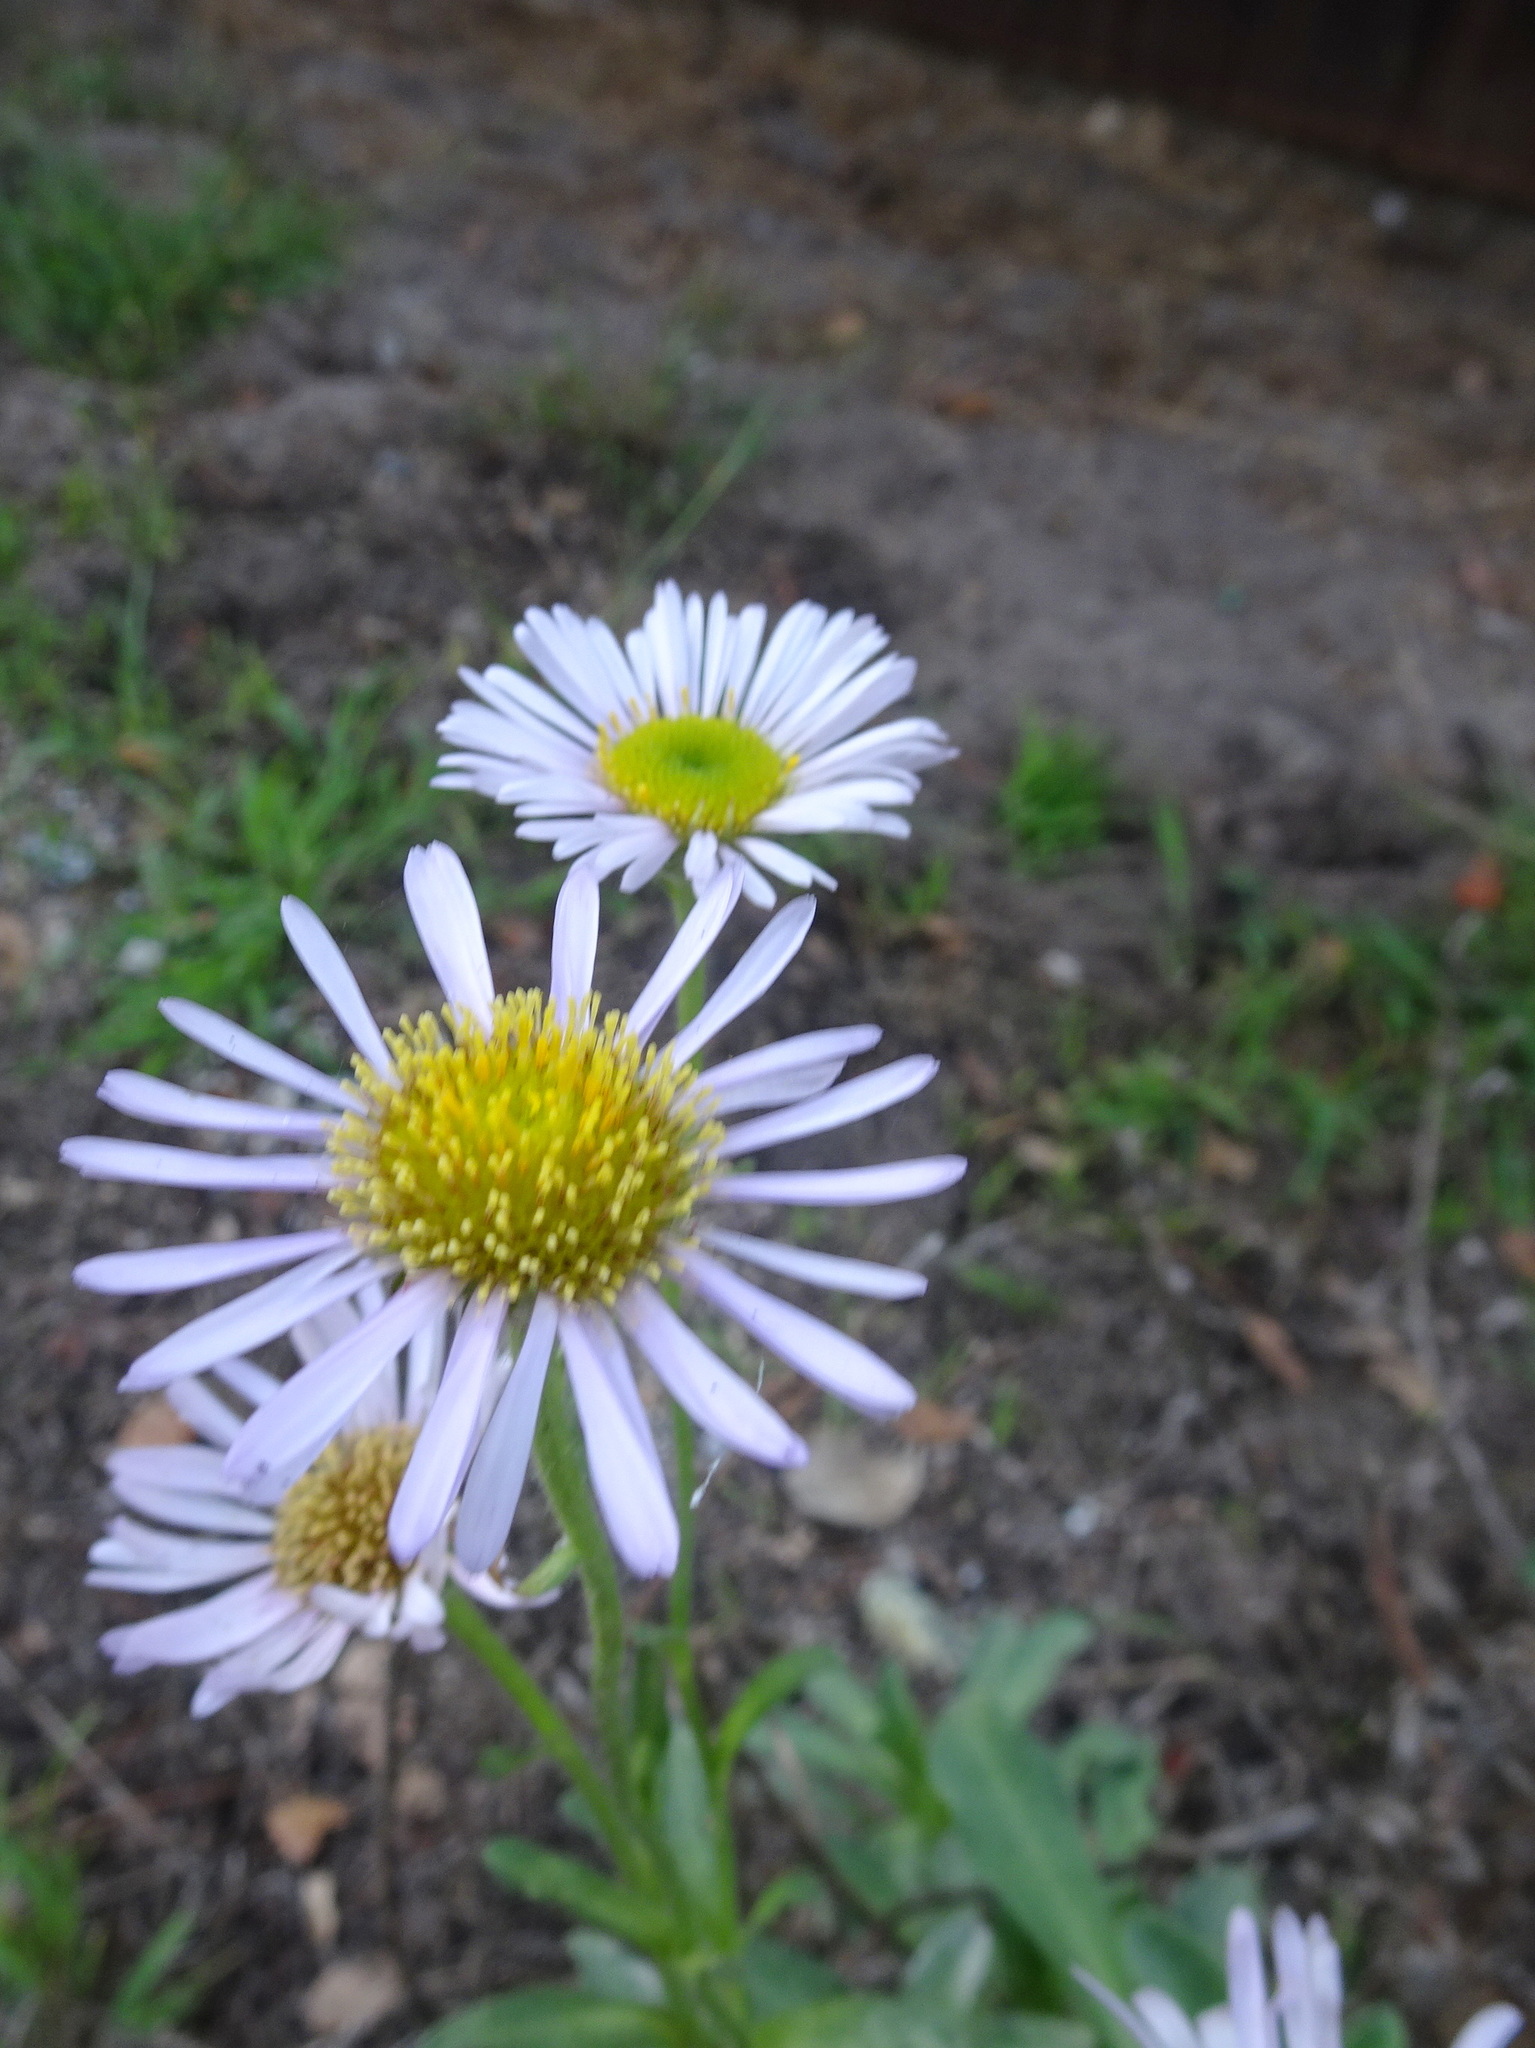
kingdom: Plantae
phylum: Tracheophyta
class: Magnoliopsida
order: Asterales
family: Asteraceae
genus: Symphyotrichum
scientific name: Symphyotrichum chilense
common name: Pacific aster
